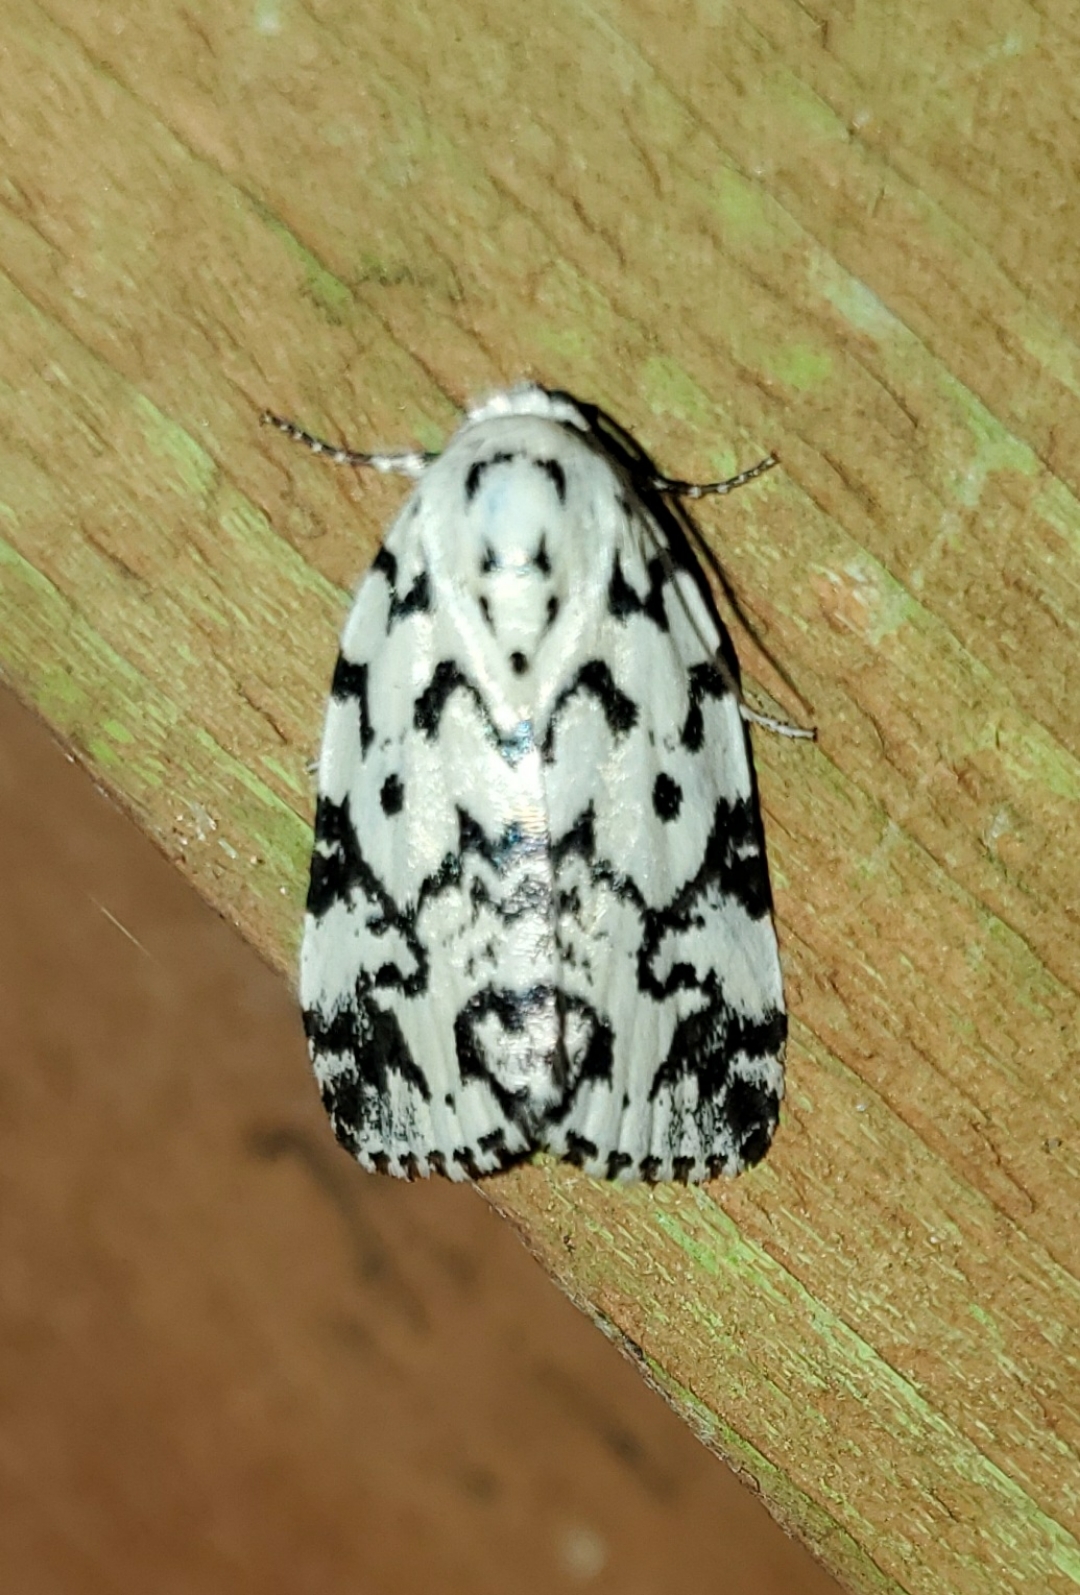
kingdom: Animalia
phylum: Arthropoda
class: Insecta
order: Lepidoptera
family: Noctuidae
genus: Polygrammate
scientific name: Polygrammate hebraeicum
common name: Hebrew moth
